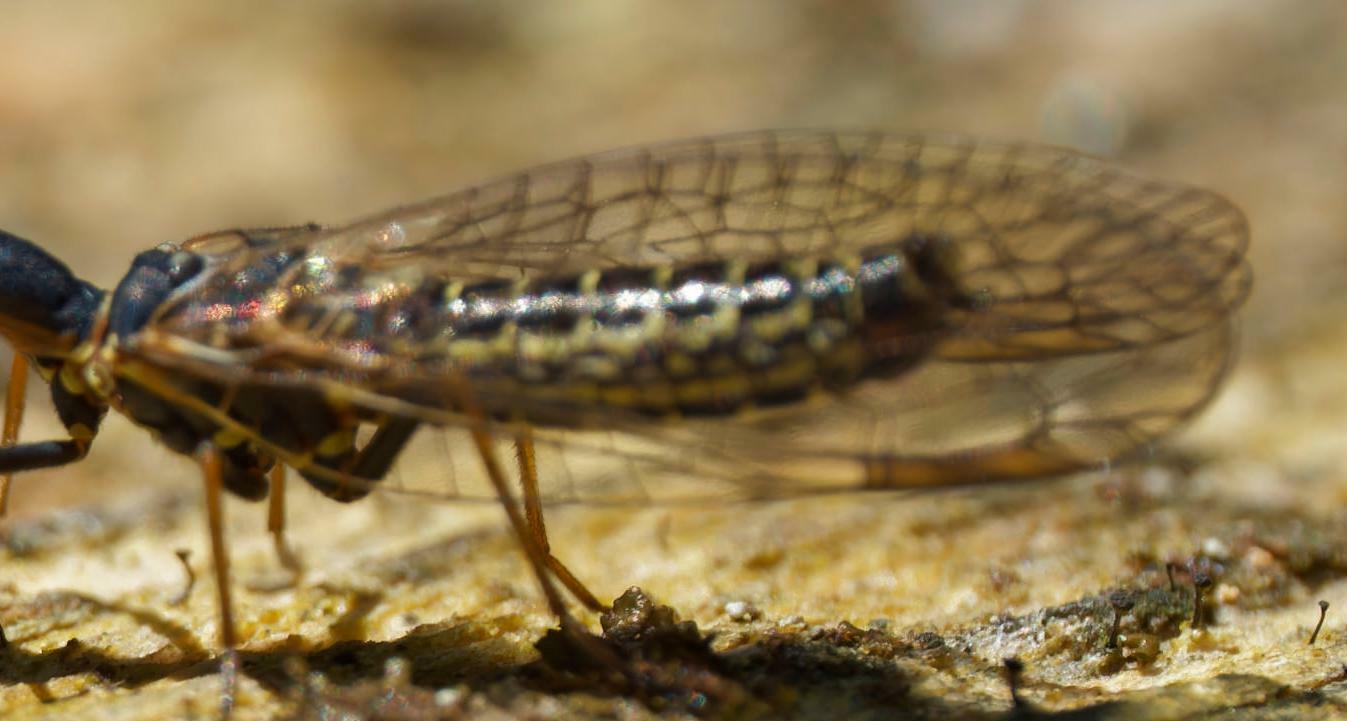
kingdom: Animalia
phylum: Arthropoda
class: Insecta
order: Raphidioptera
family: Raphidiidae
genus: Puncha
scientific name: Puncha ratzeburgi
